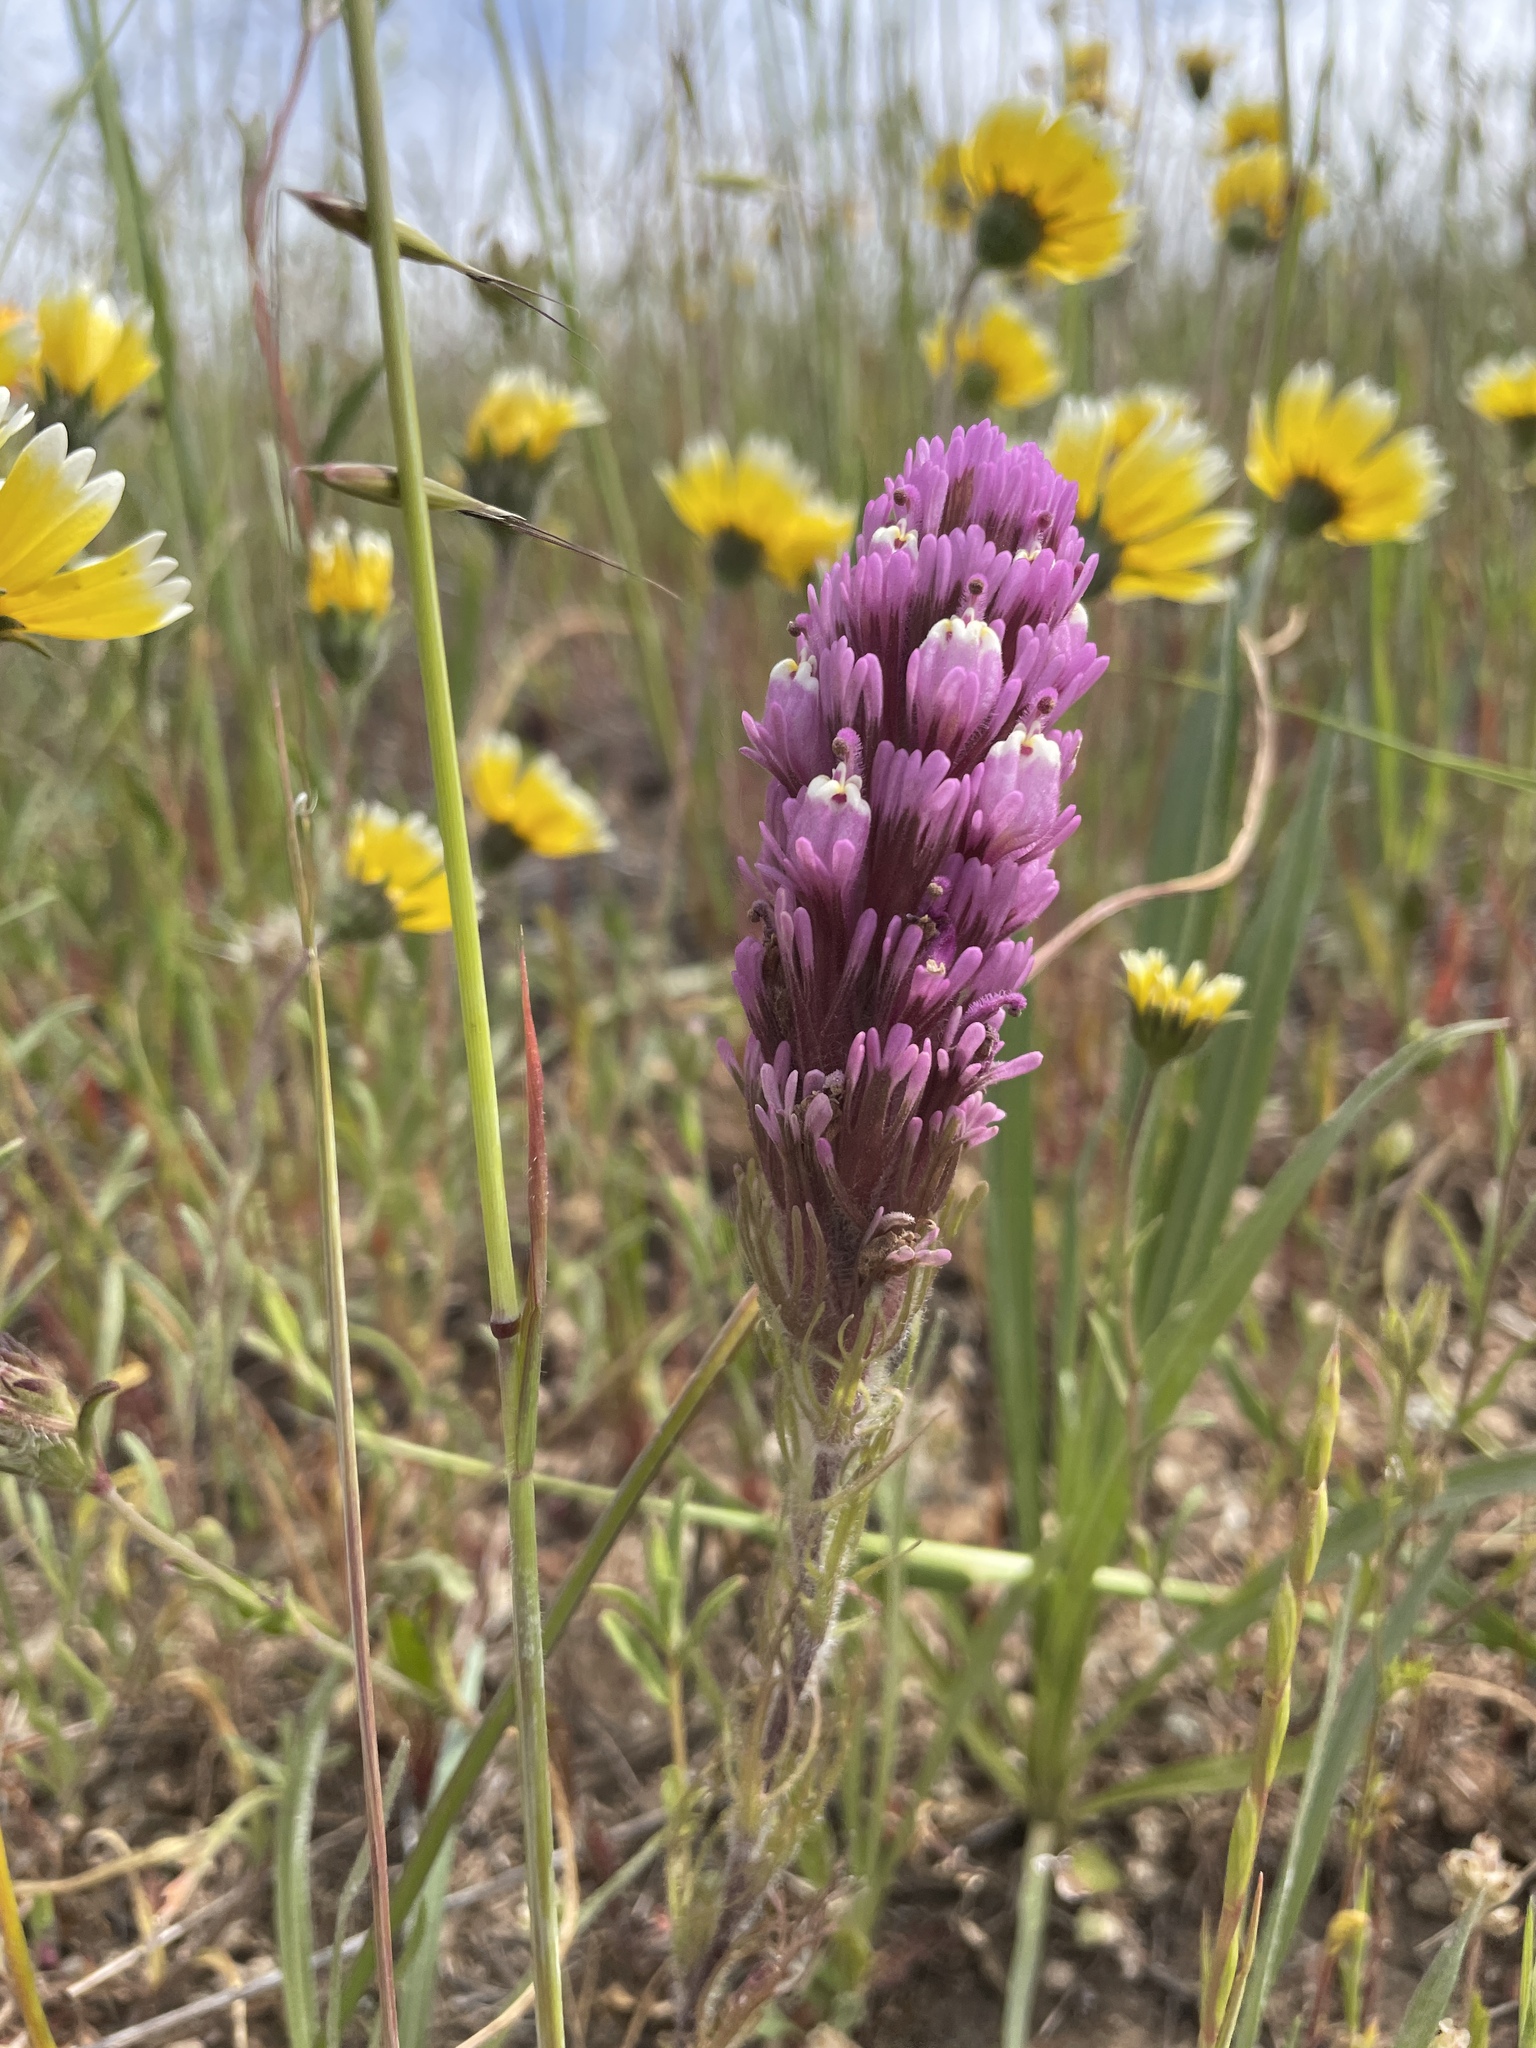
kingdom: Plantae
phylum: Tracheophyta
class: Magnoliopsida
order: Lamiales
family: Orobanchaceae
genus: Castilleja
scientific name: Castilleja exserta
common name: Purple owl-clover
